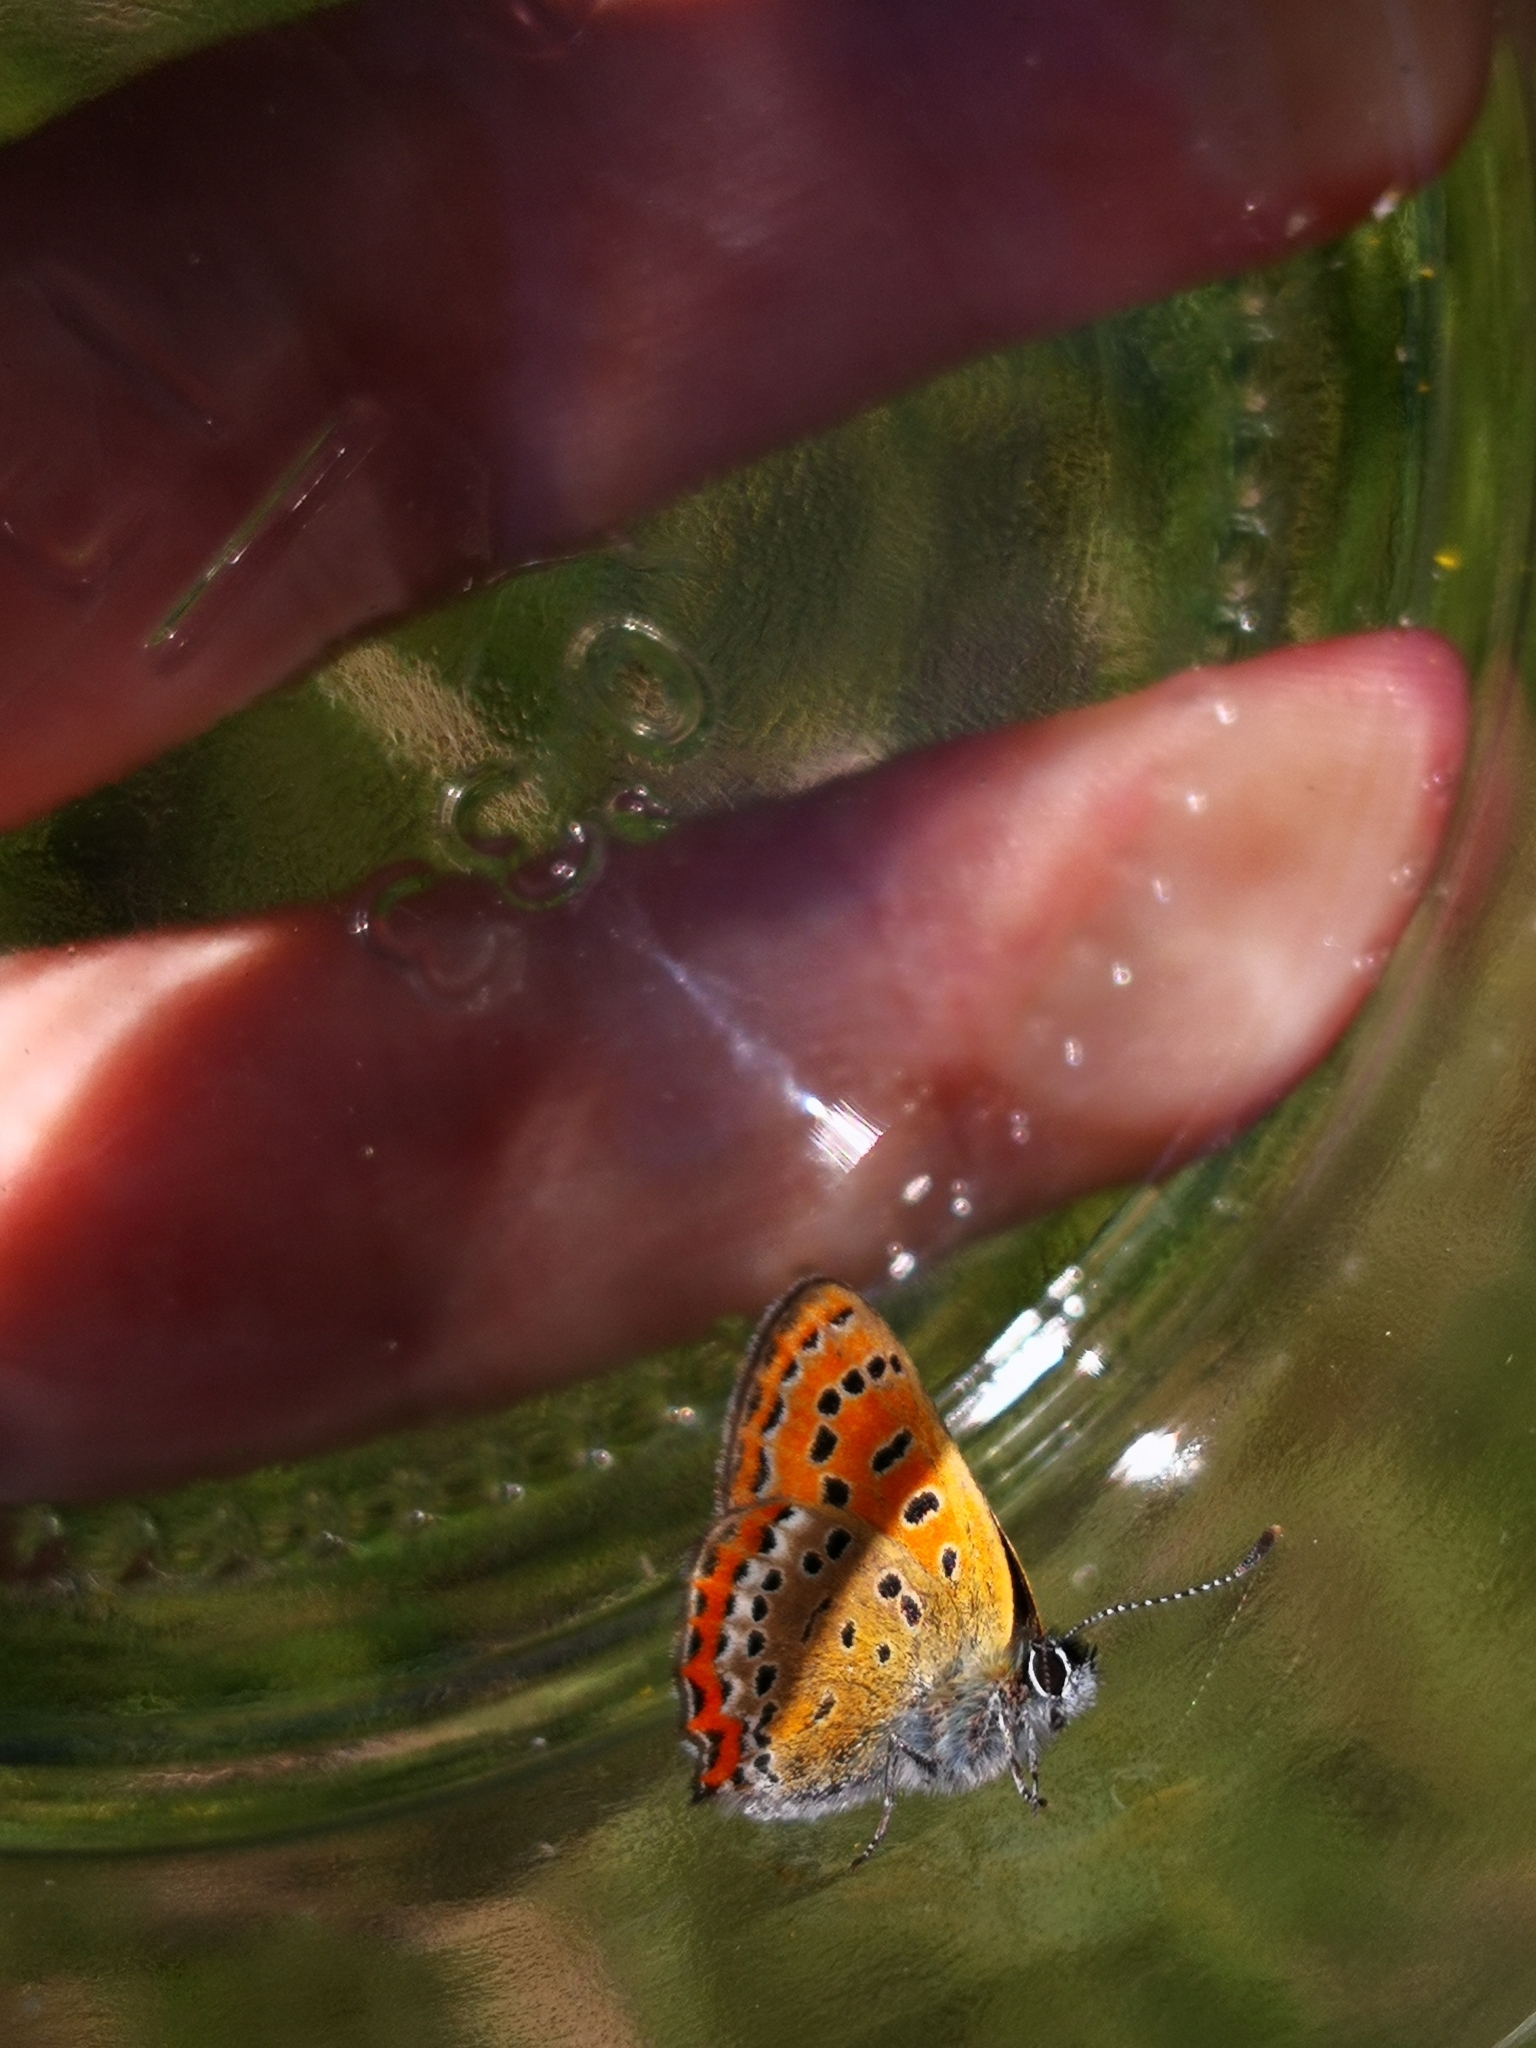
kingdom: Animalia
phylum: Arthropoda
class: Insecta
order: Lepidoptera
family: Lycaenidae
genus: Helleia
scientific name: Helleia helle
